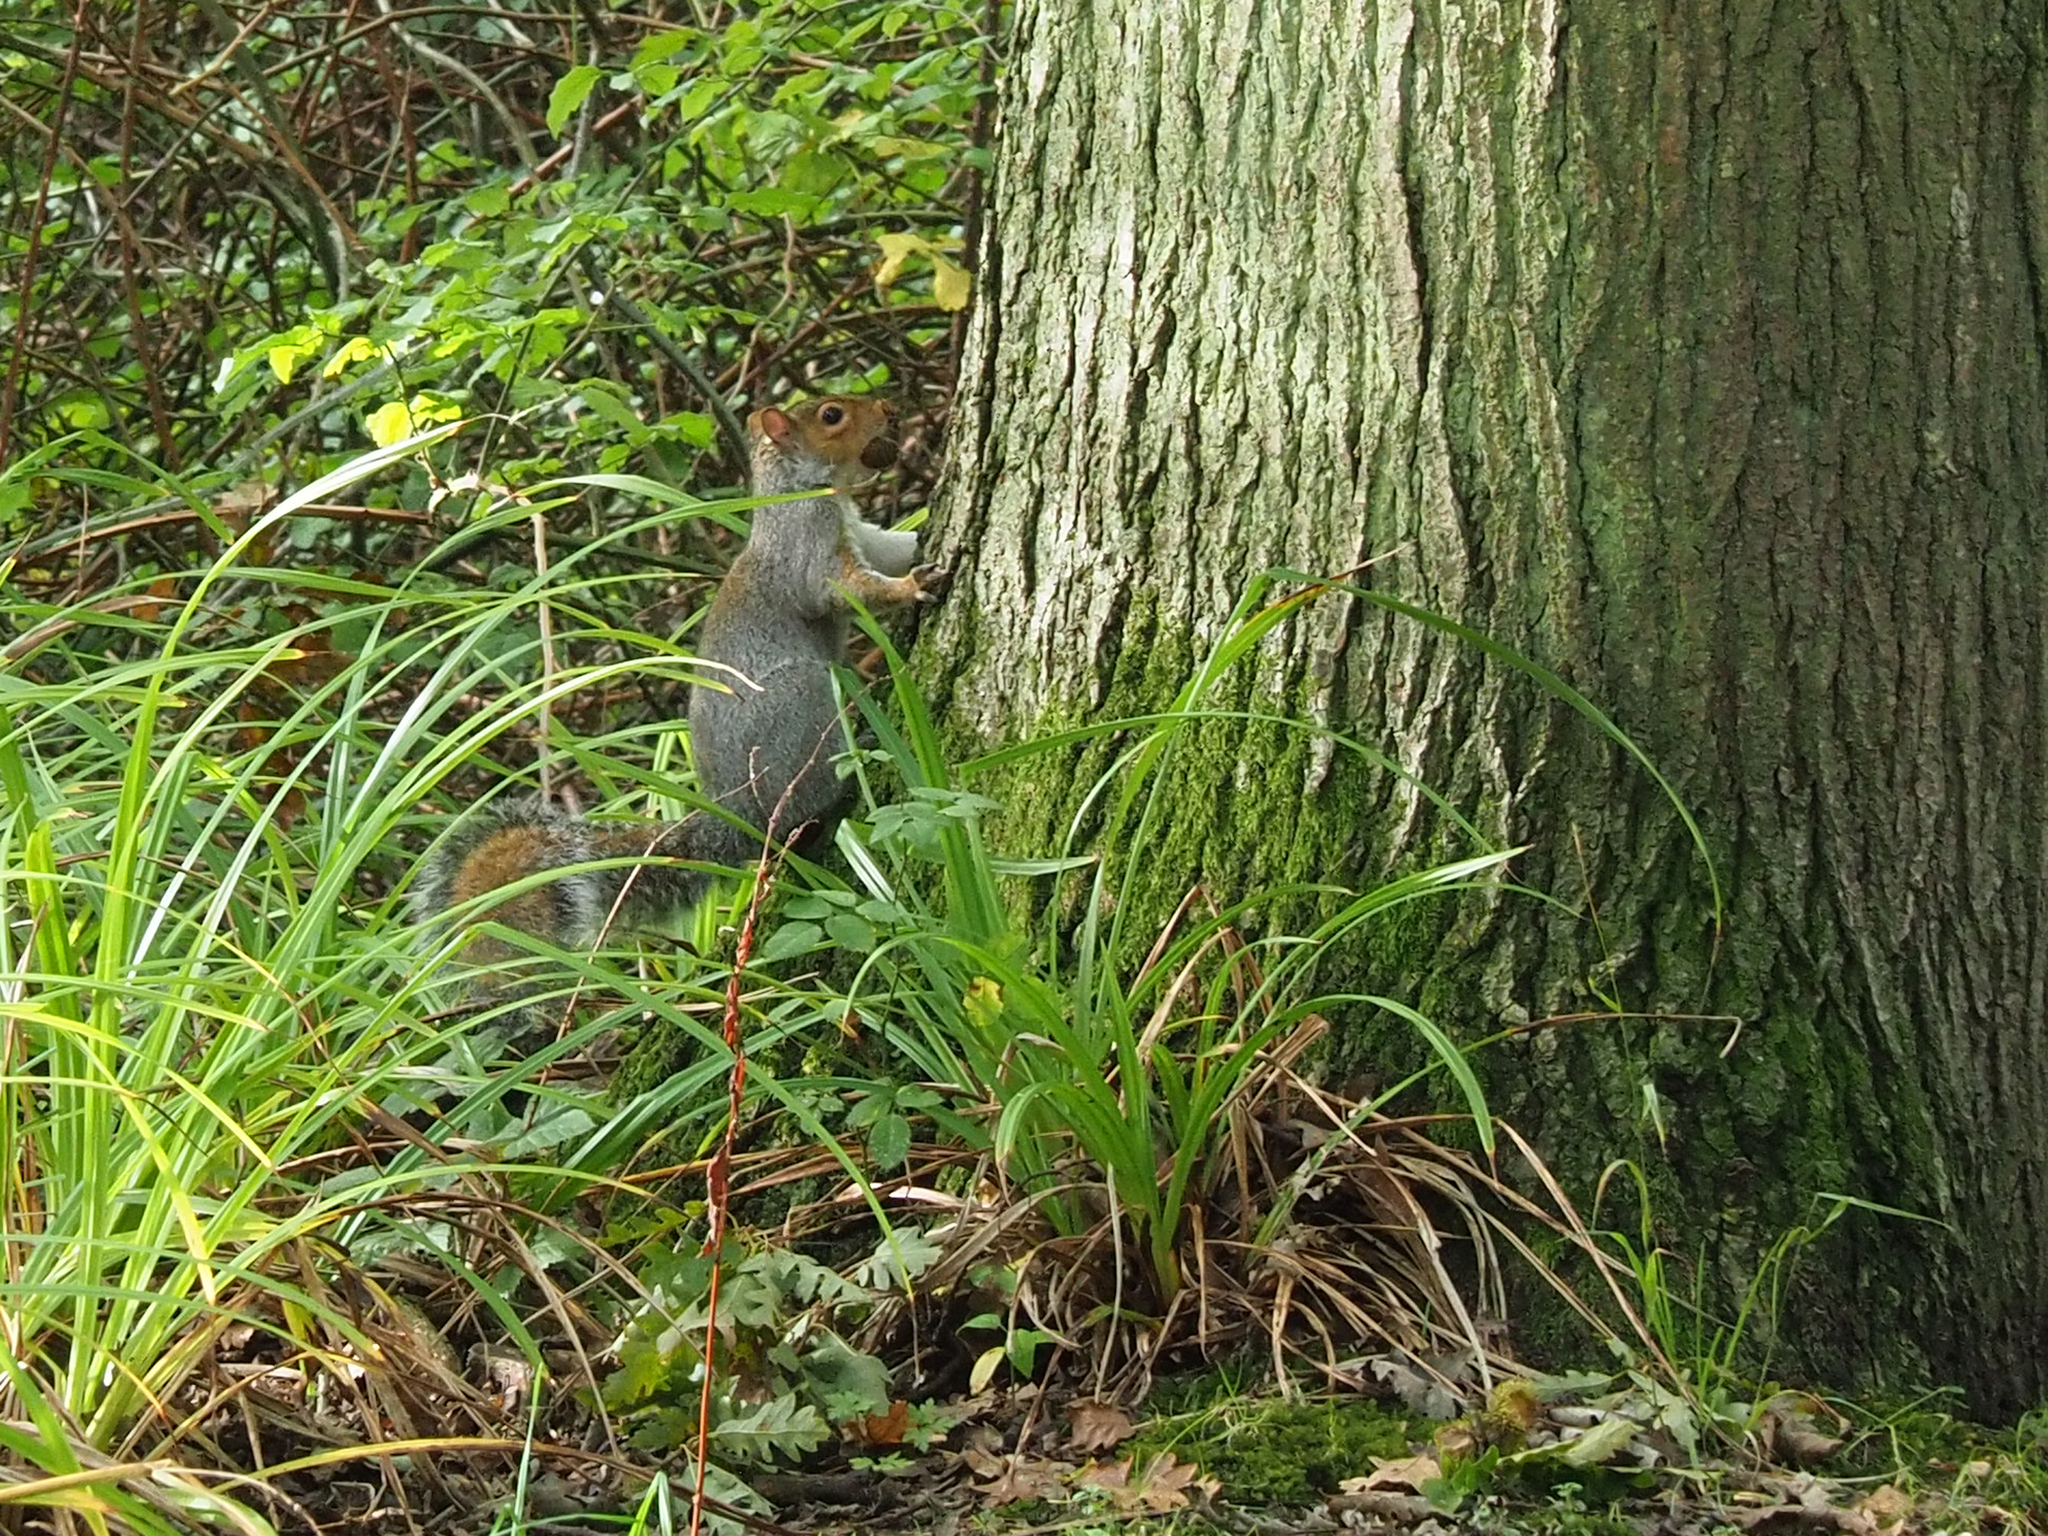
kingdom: Animalia
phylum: Chordata
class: Mammalia
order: Rodentia
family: Sciuridae
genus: Sciurus
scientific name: Sciurus carolinensis
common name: Eastern gray squirrel
